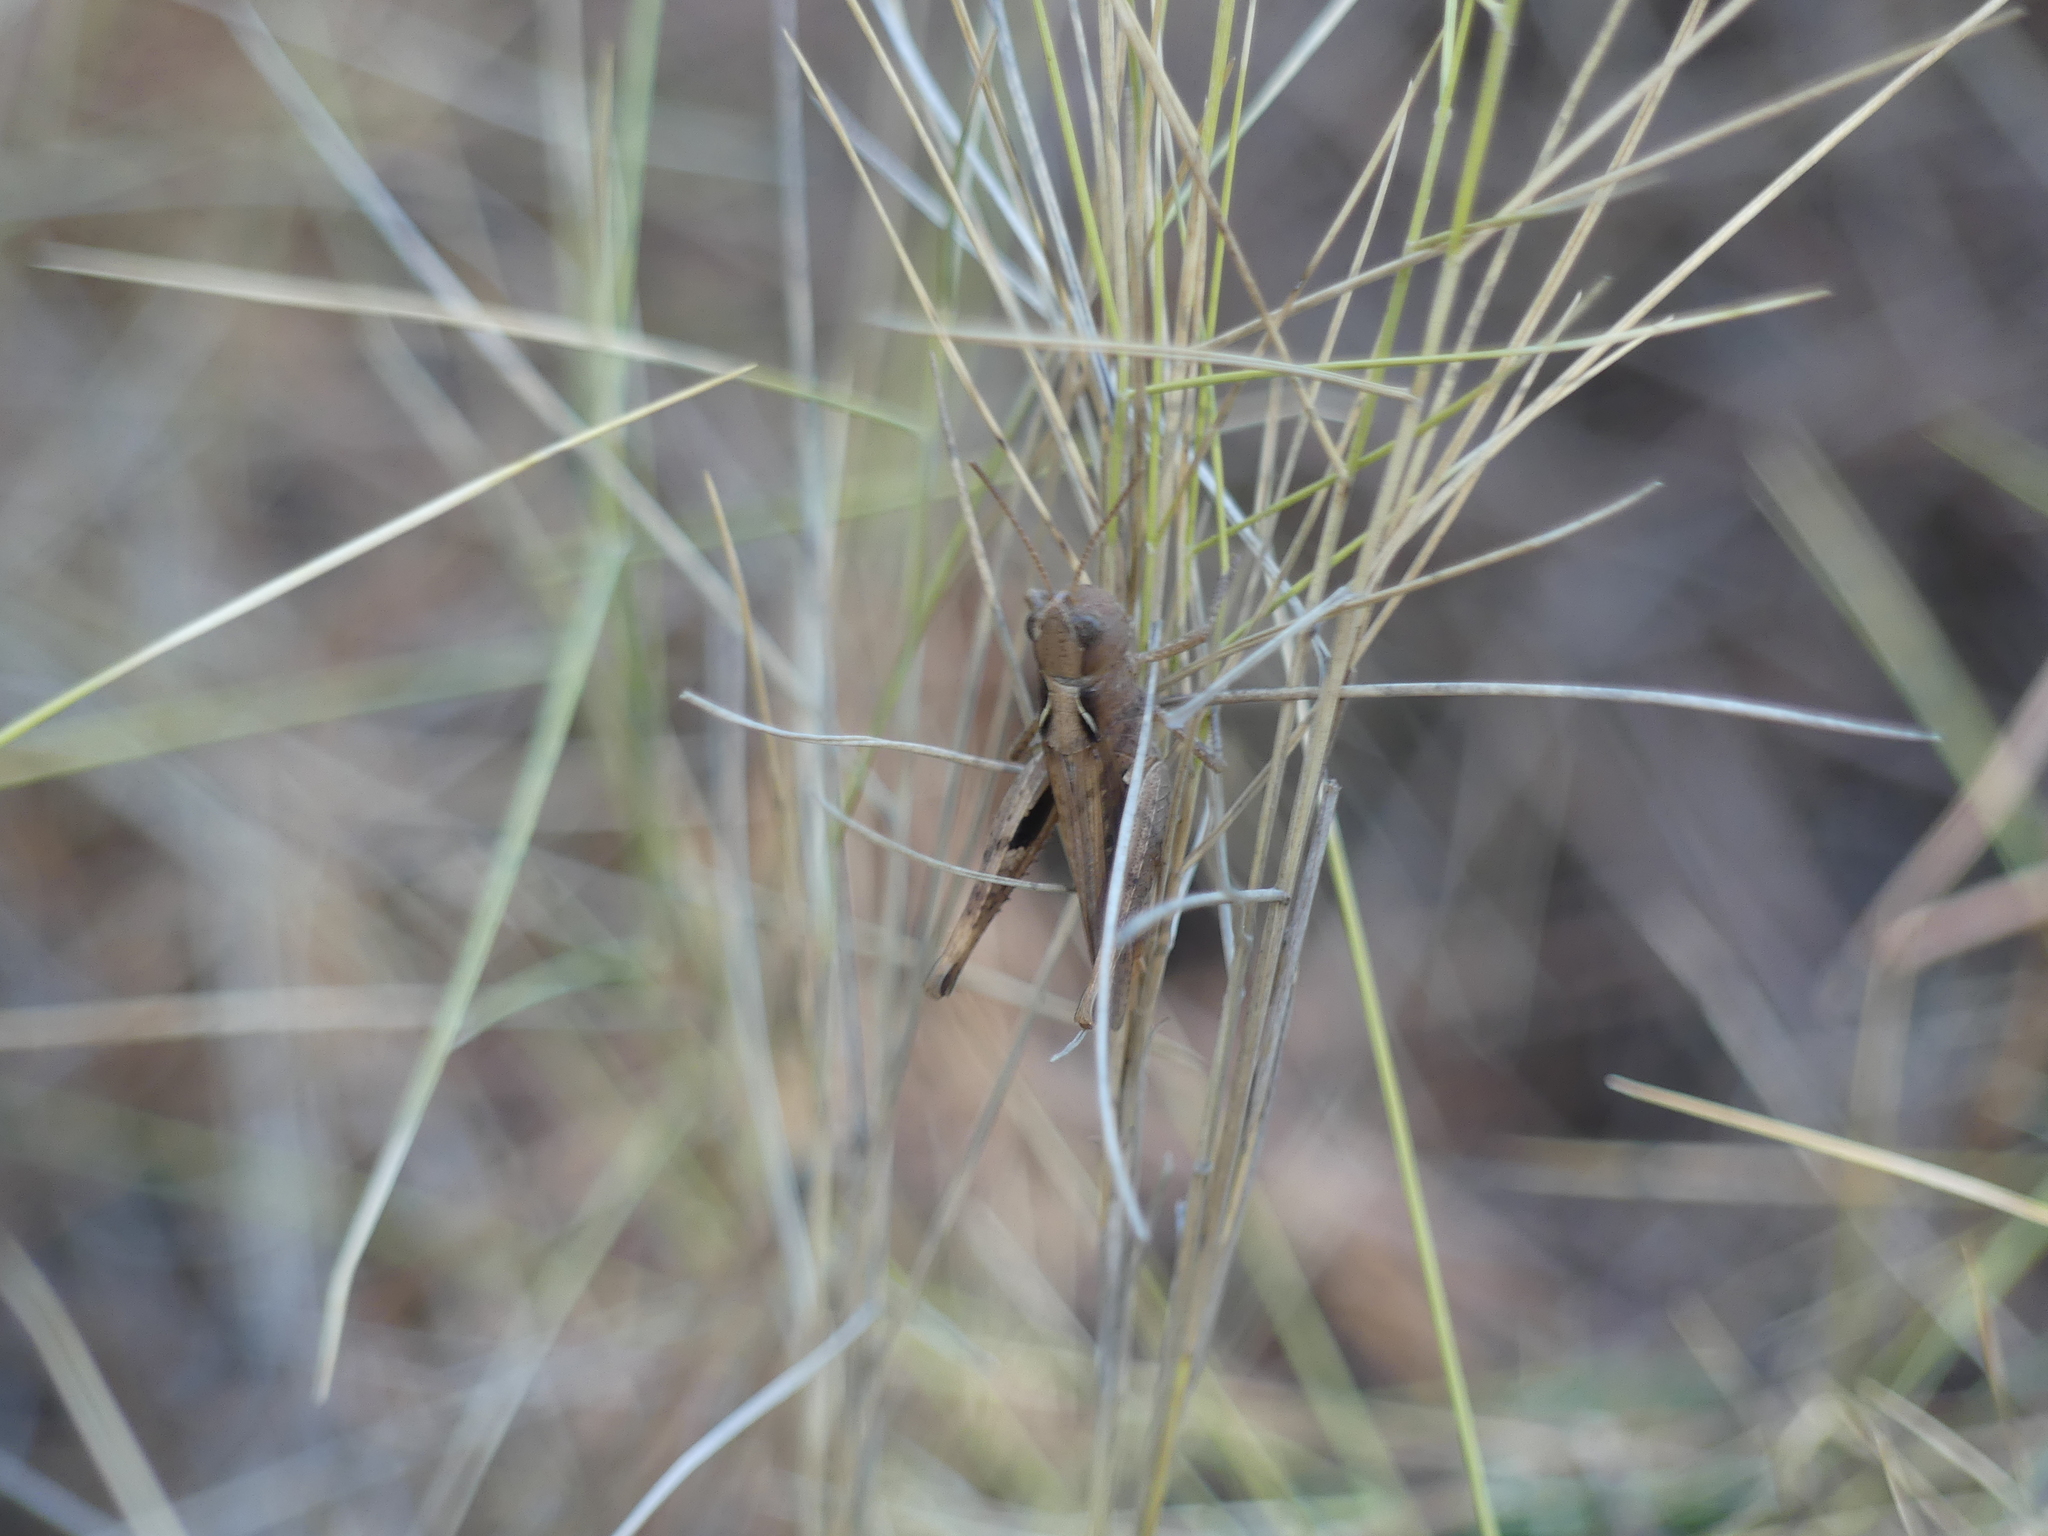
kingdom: Animalia
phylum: Arthropoda
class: Insecta
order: Orthoptera
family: Acrididae
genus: Chorthippus
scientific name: Chorthippus vagans
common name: Heath grasshopper
